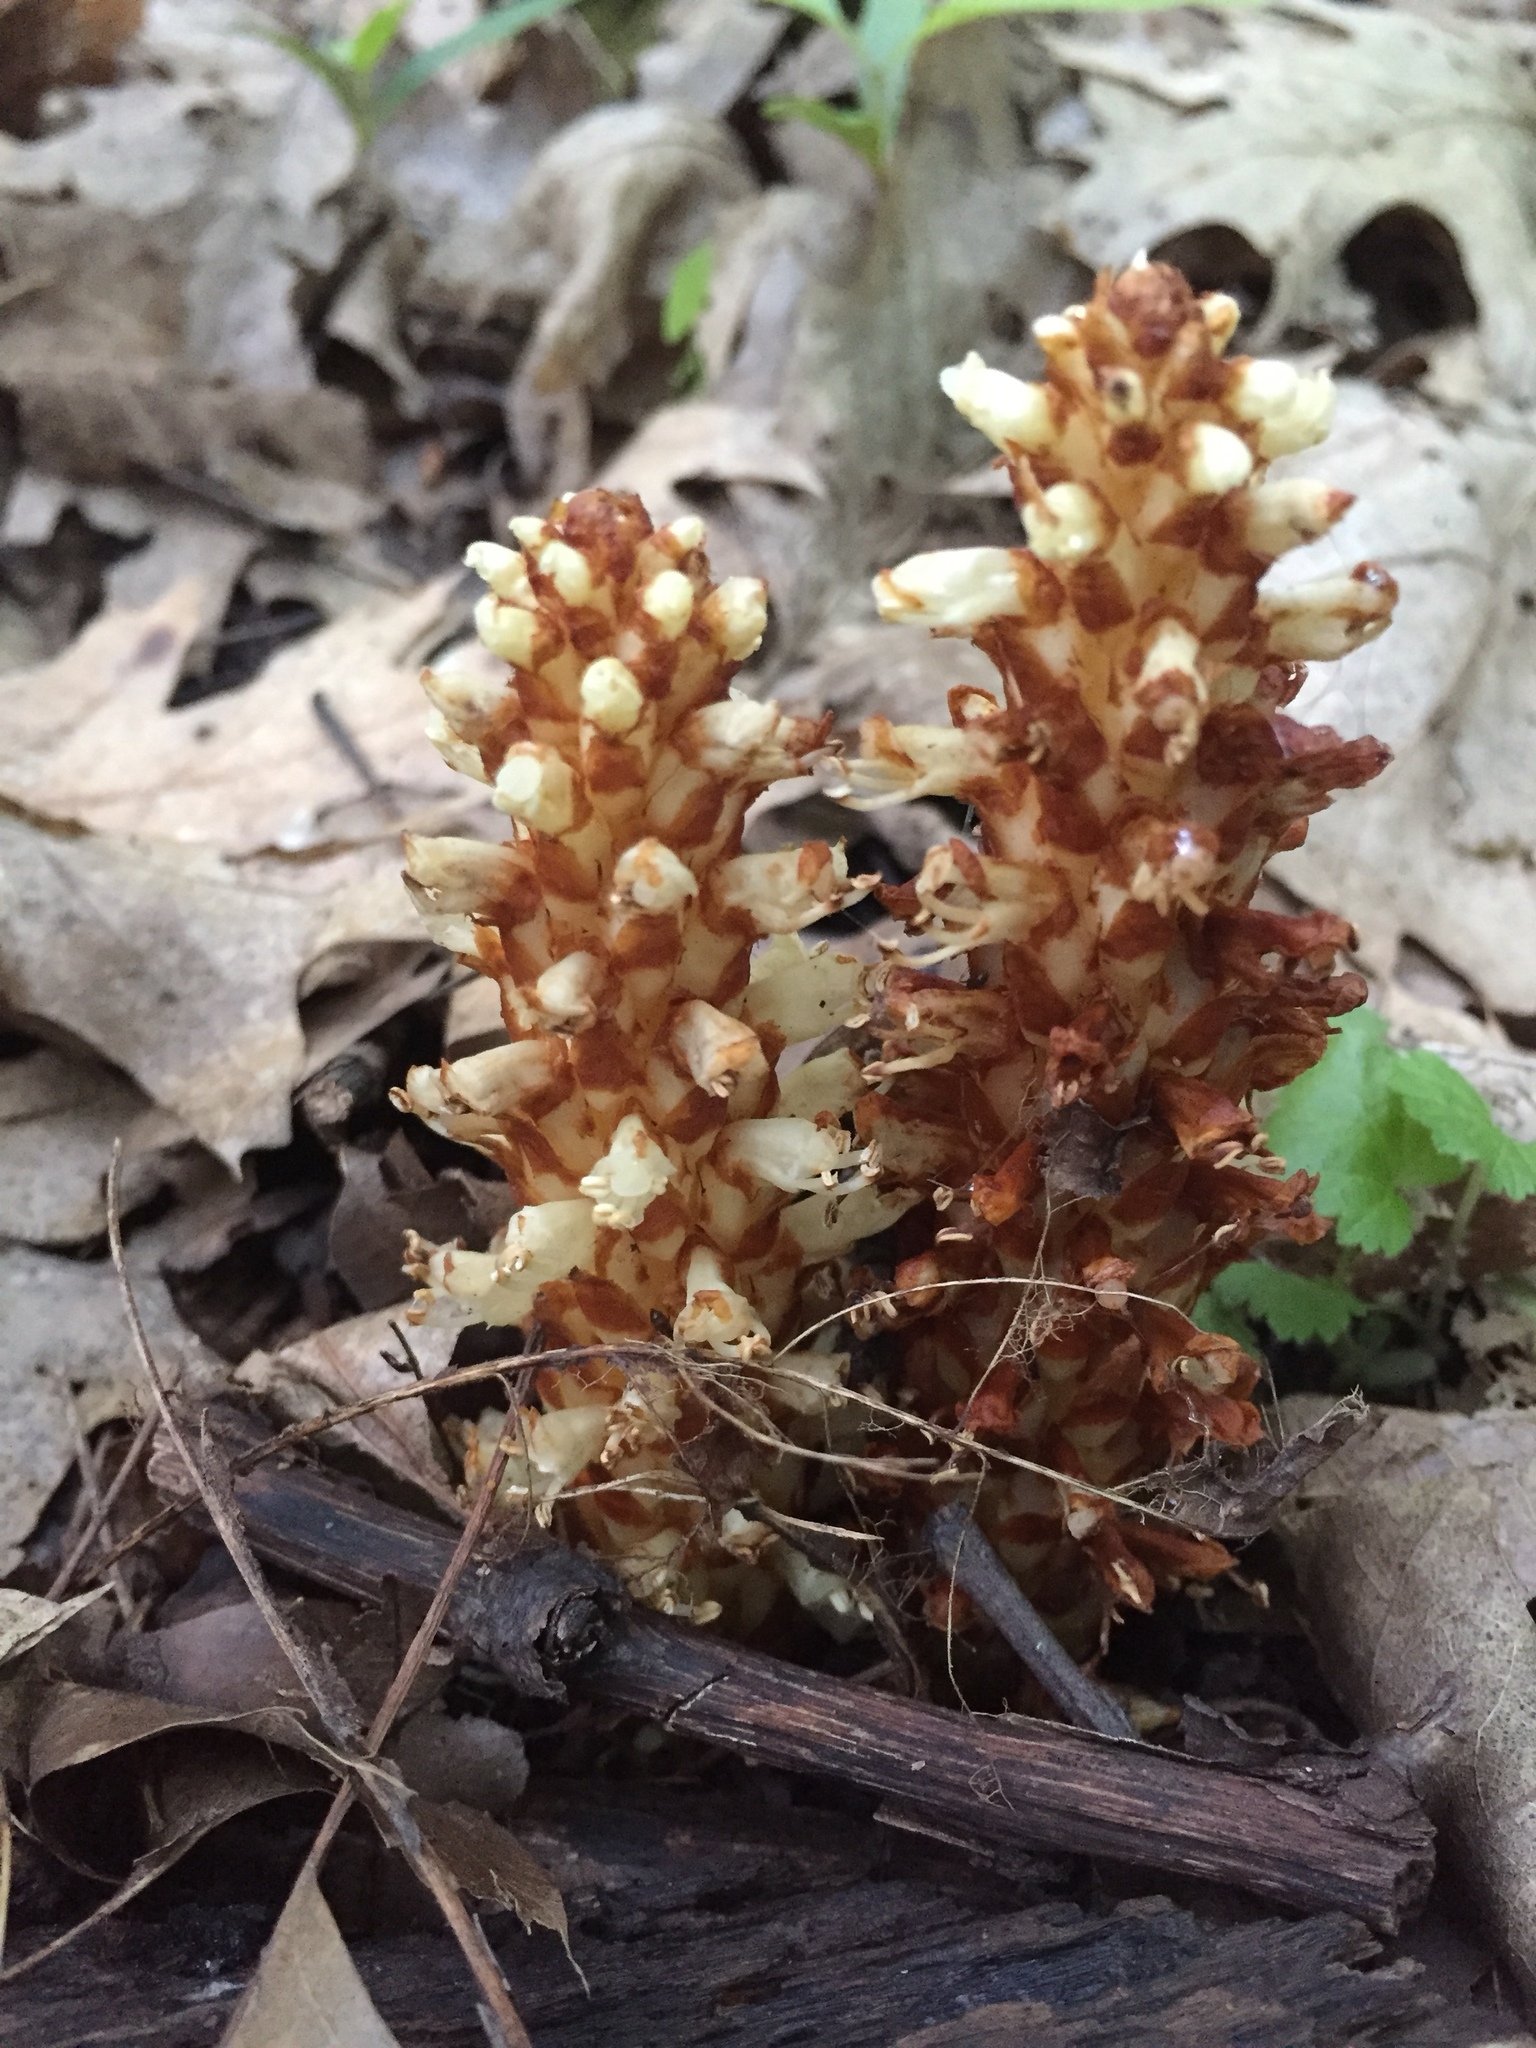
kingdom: Plantae
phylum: Tracheophyta
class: Magnoliopsida
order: Lamiales
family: Orobanchaceae
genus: Conopholis
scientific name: Conopholis americana
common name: American cancer-root
